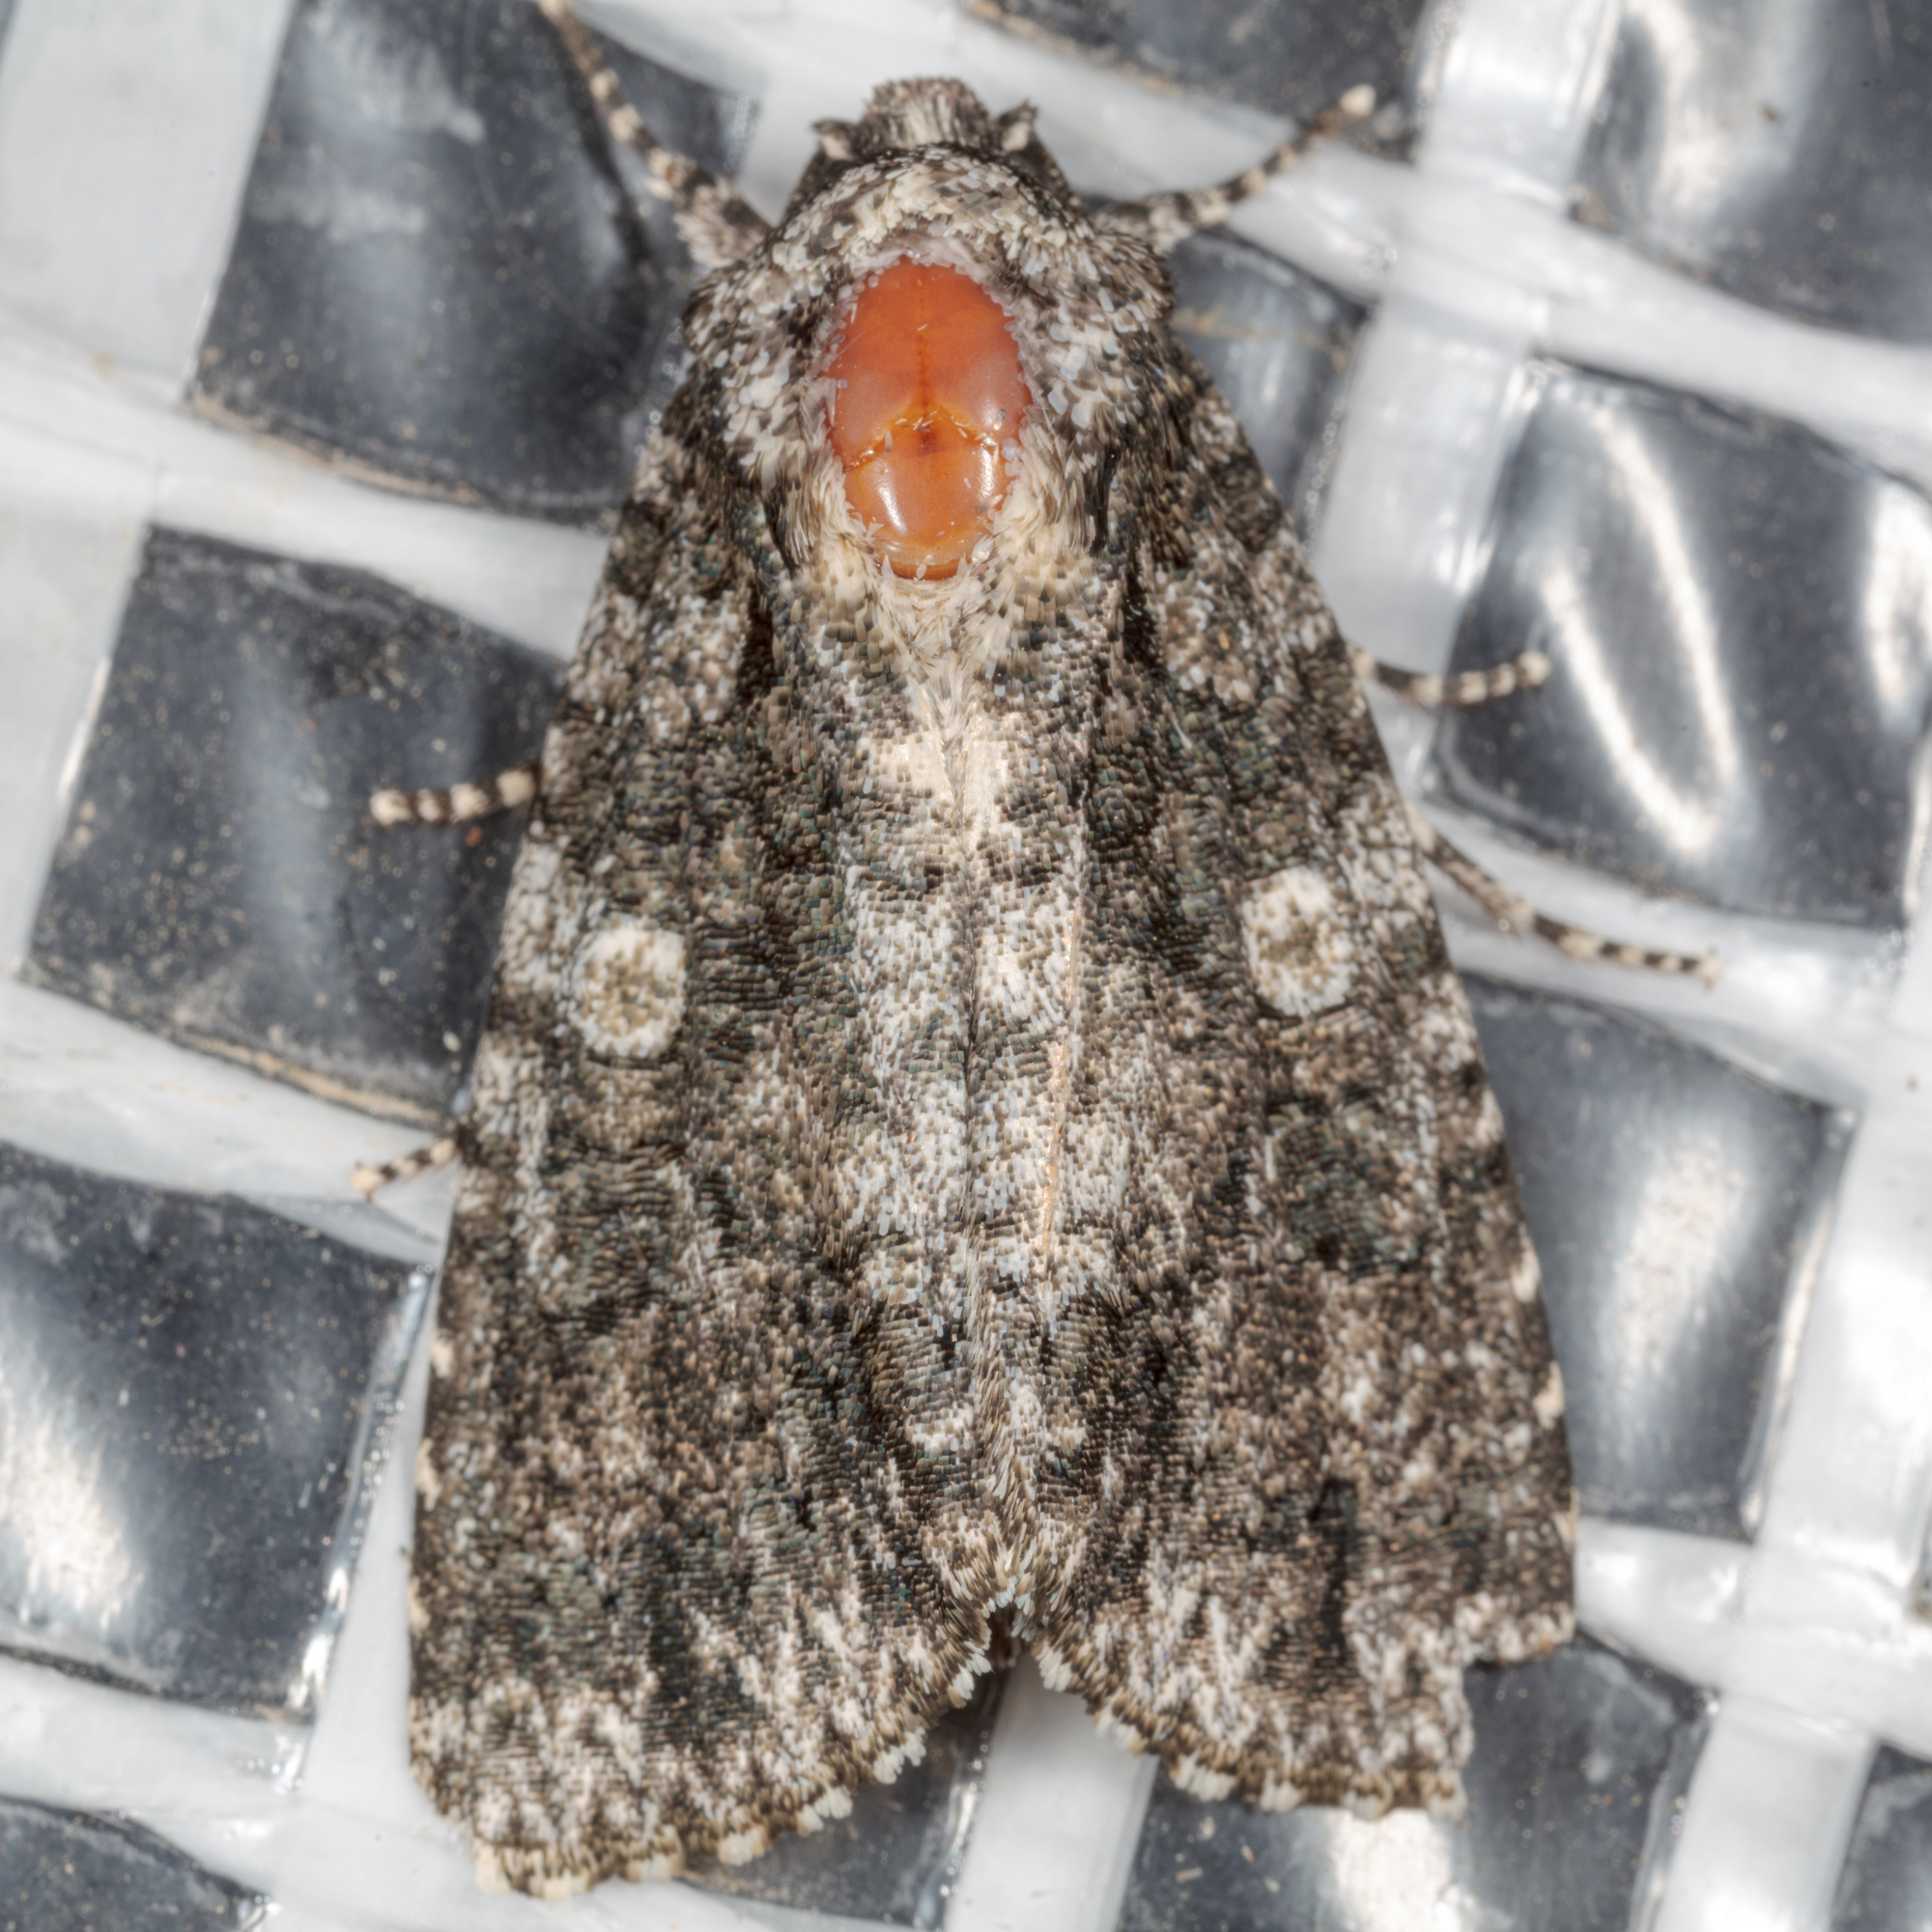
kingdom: Animalia
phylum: Arthropoda
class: Insecta
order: Lepidoptera
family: Noctuidae
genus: Acronicta
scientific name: Acronicta afflicta
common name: Afflicted dagger moth
